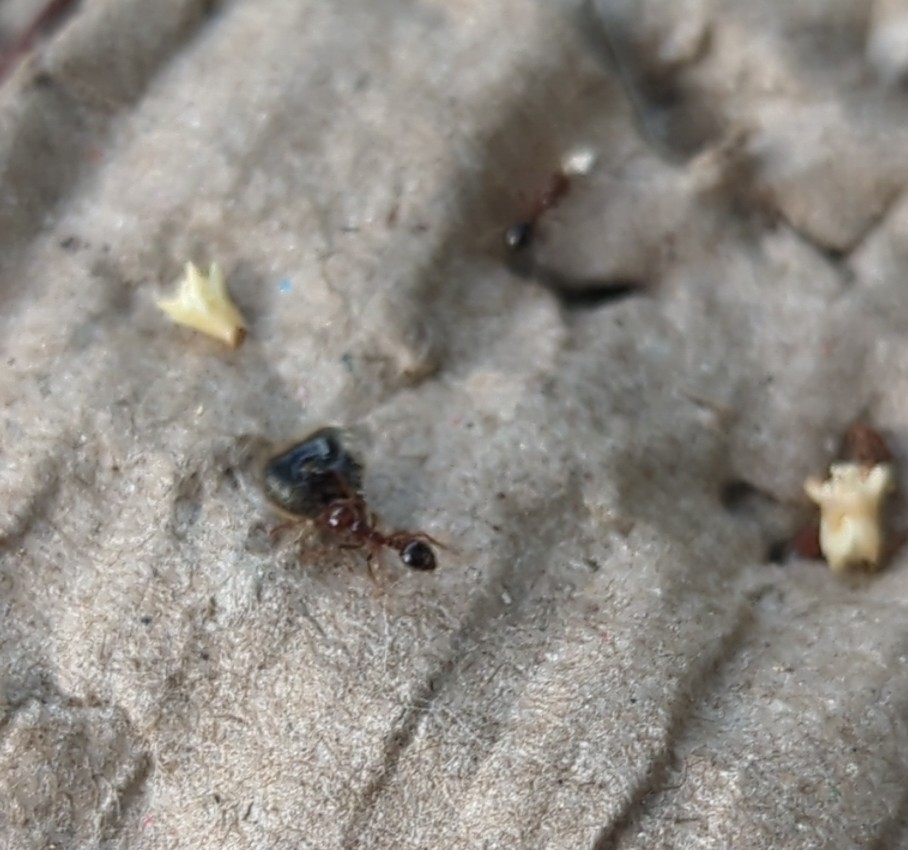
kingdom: Animalia
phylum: Arthropoda
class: Insecta
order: Hymenoptera
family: Formicidae
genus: Solenopsis
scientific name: Solenopsis invicta
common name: Red imported fire ant
